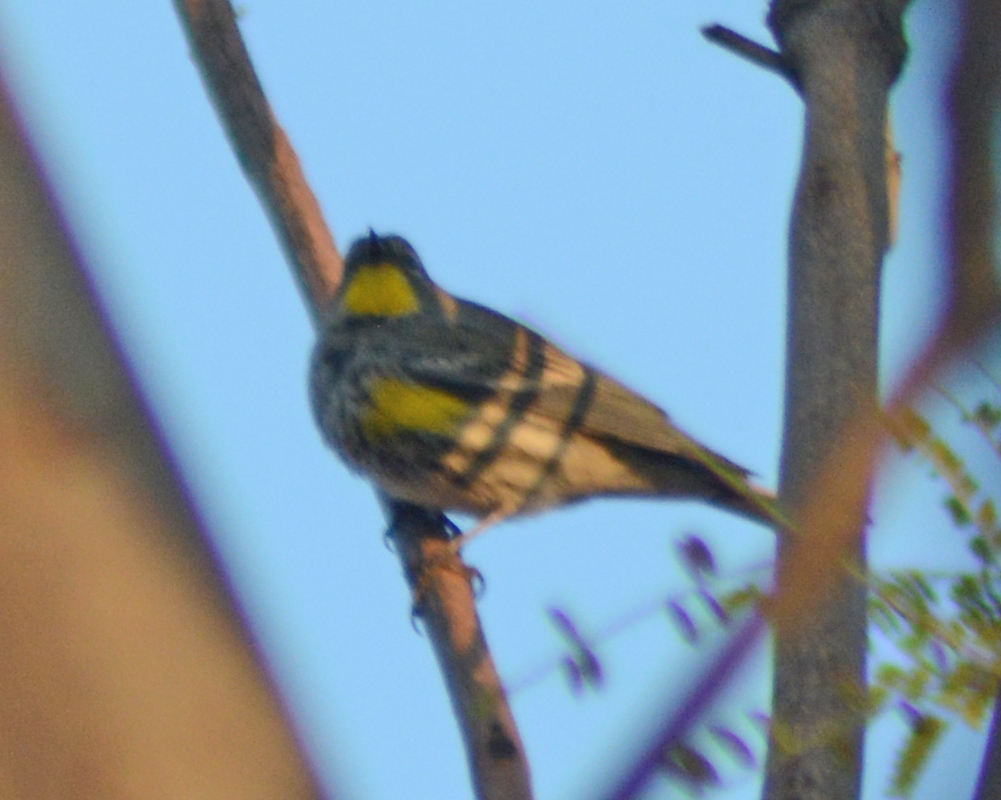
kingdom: Animalia
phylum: Chordata
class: Aves
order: Passeriformes
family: Parulidae
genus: Setophaga
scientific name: Setophaga auduboni
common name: Audubon's warbler
